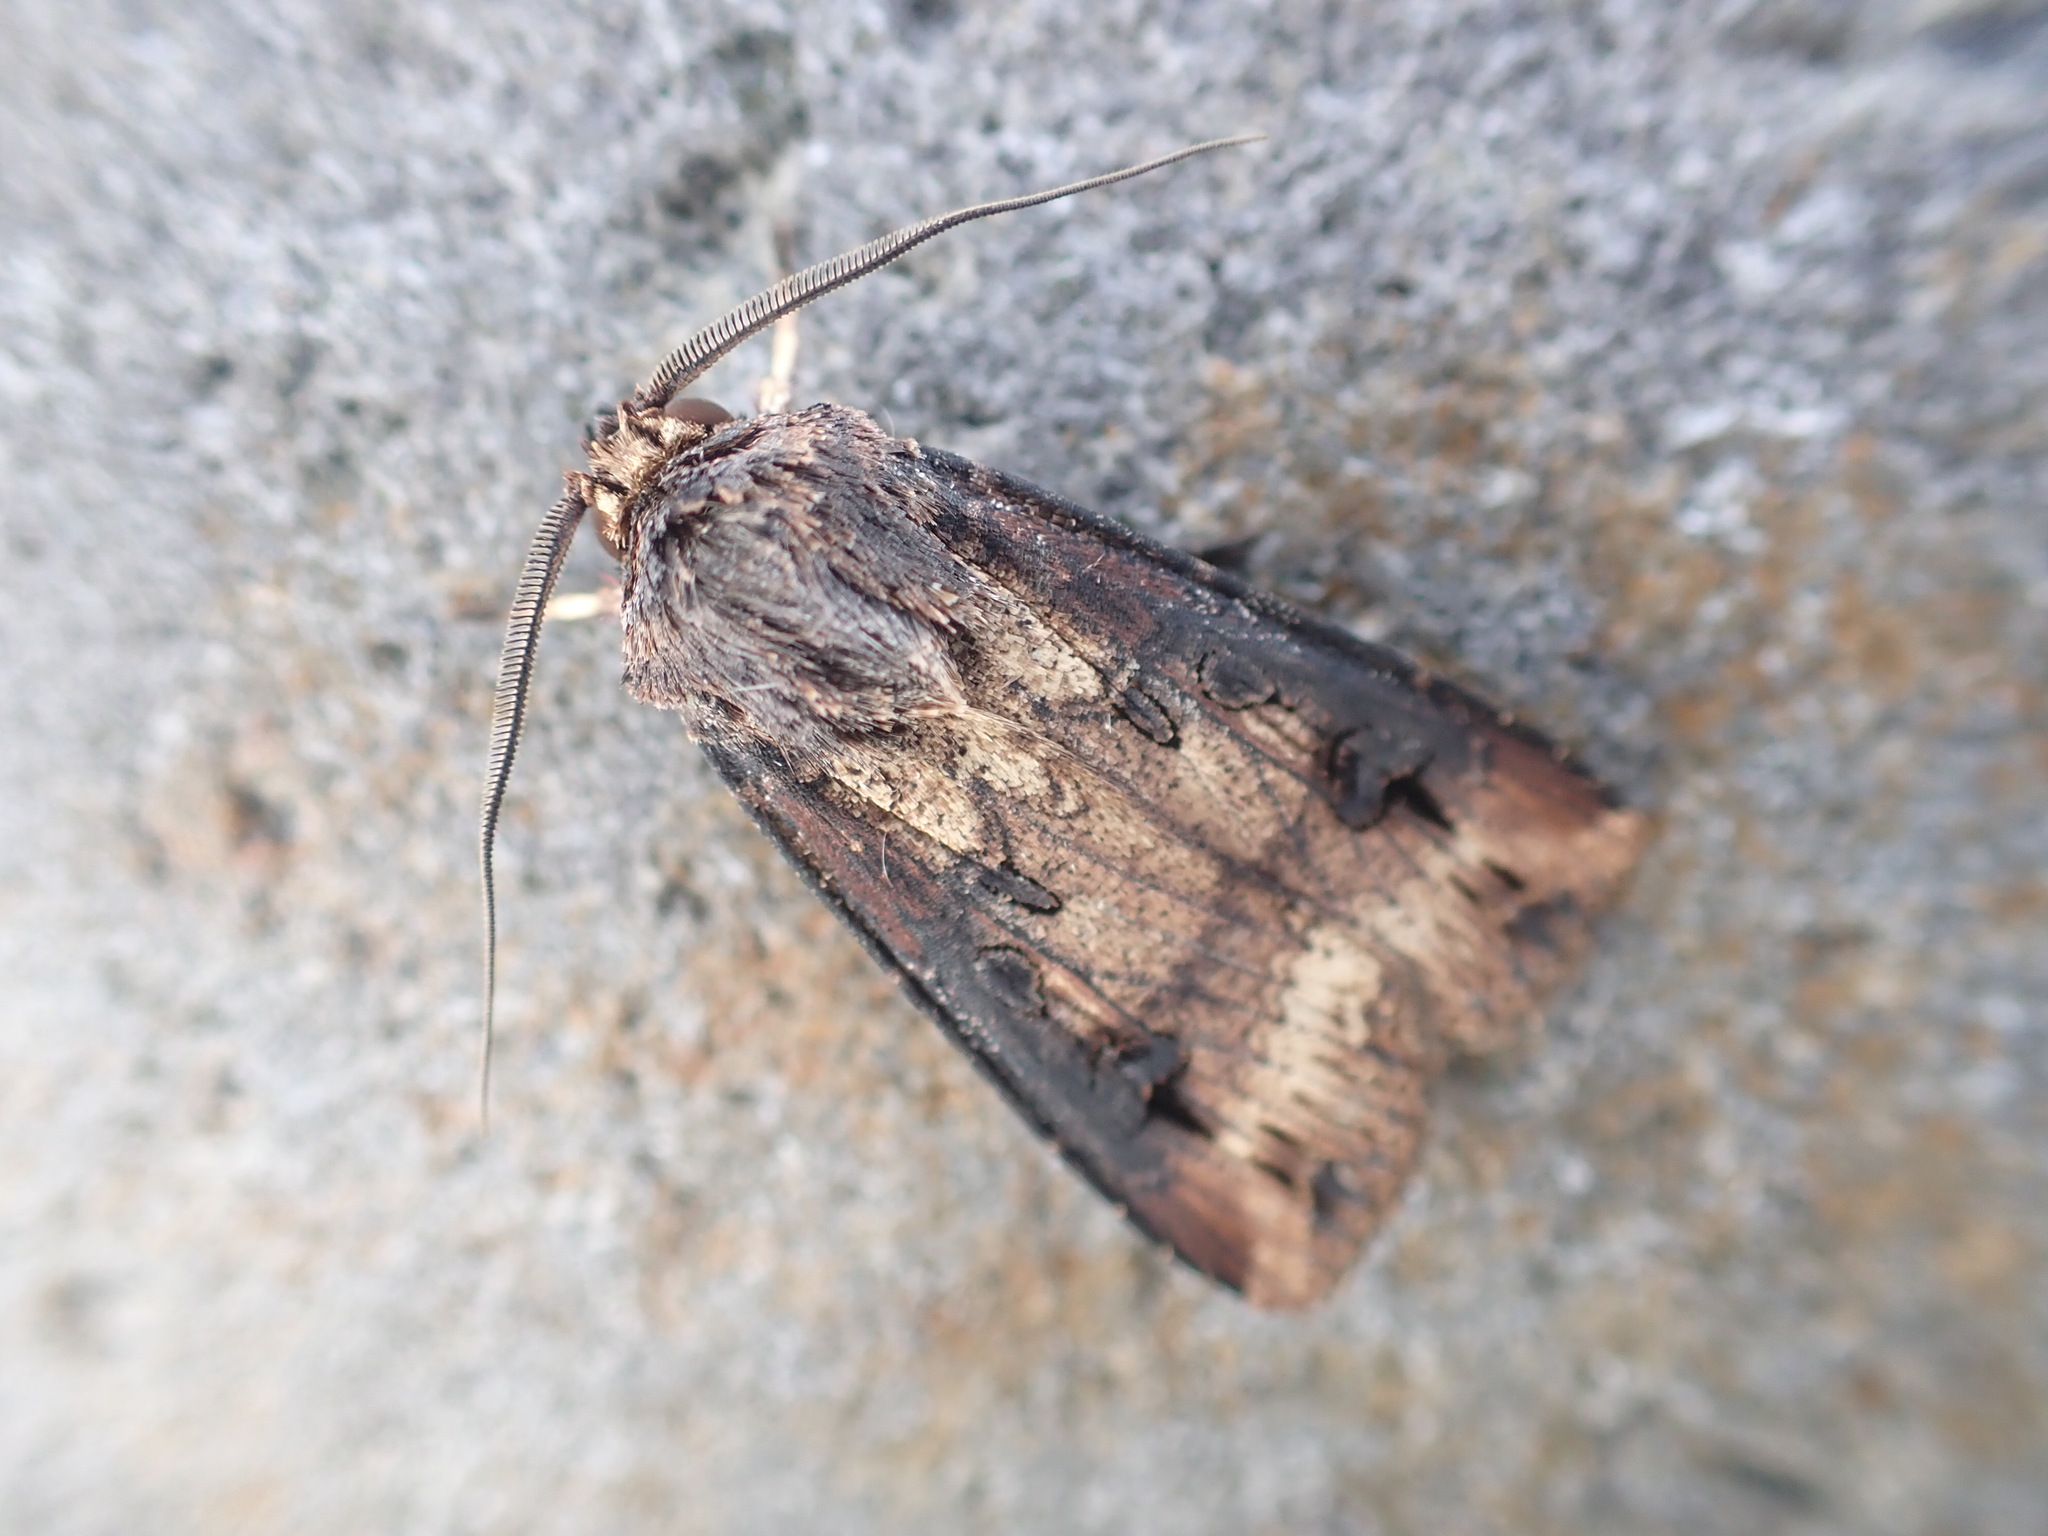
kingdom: Animalia
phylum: Arthropoda
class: Insecta
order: Lepidoptera
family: Noctuidae
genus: Agrotis
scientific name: Agrotis ipsilon
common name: Dark sword-grass
